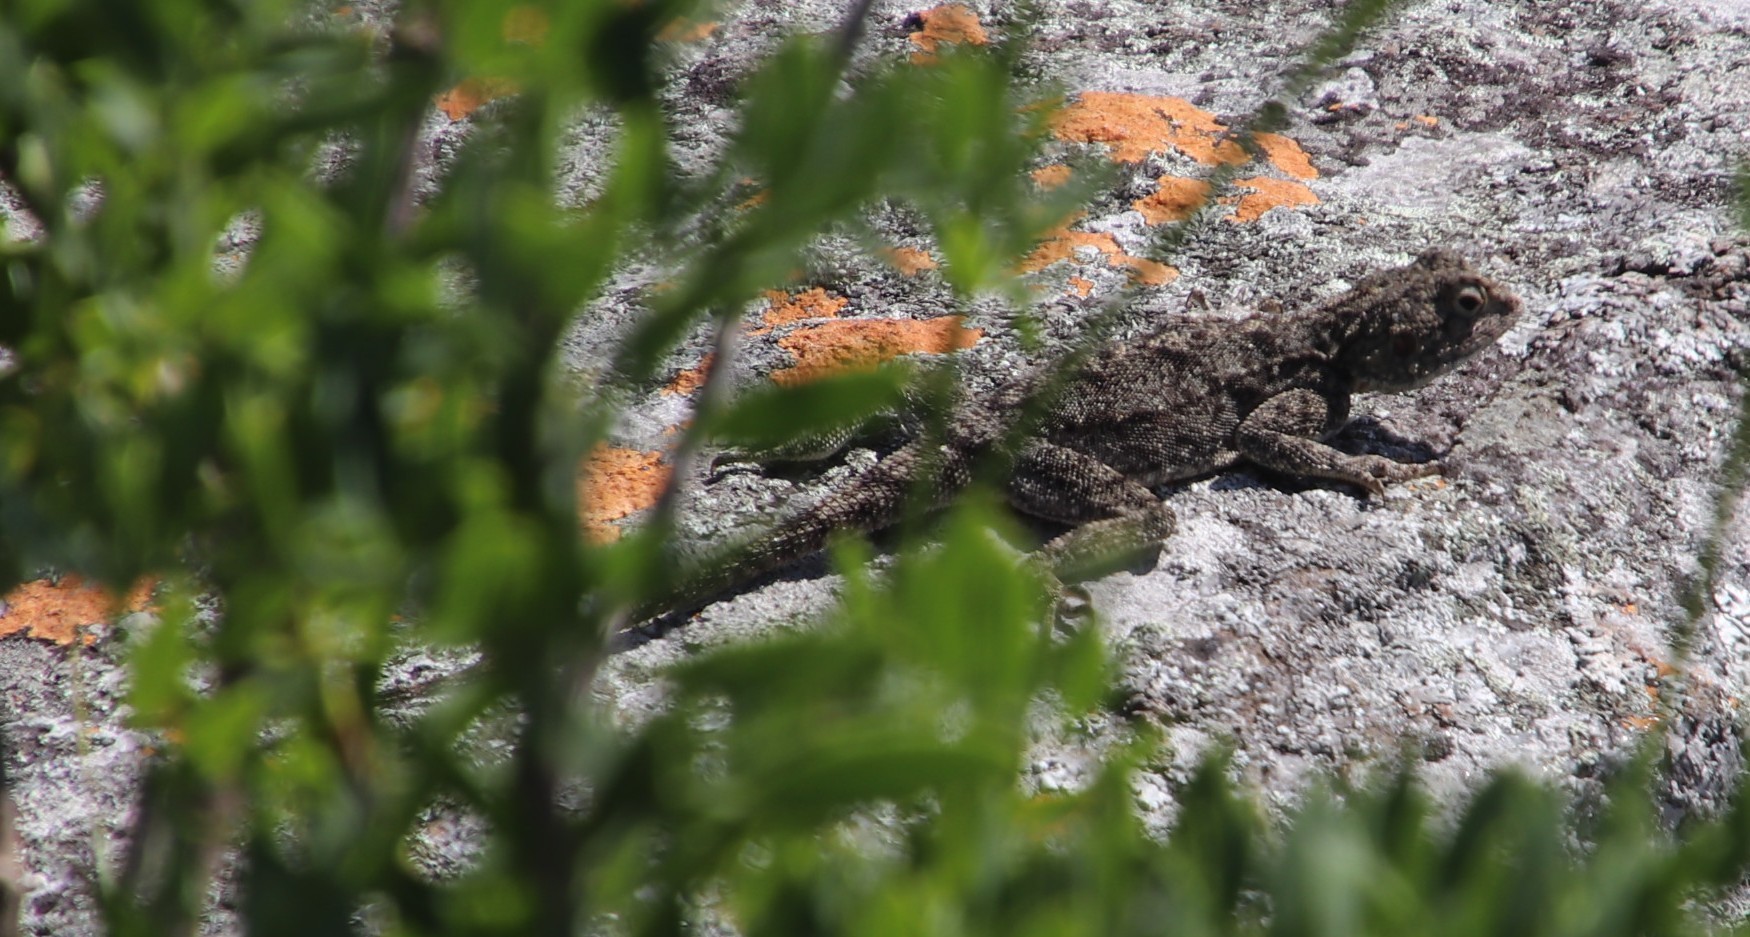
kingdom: Animalia
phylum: Chordata
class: Squamata
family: Agamidae
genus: Agama
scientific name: Agama atra
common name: Southern african rock agama
